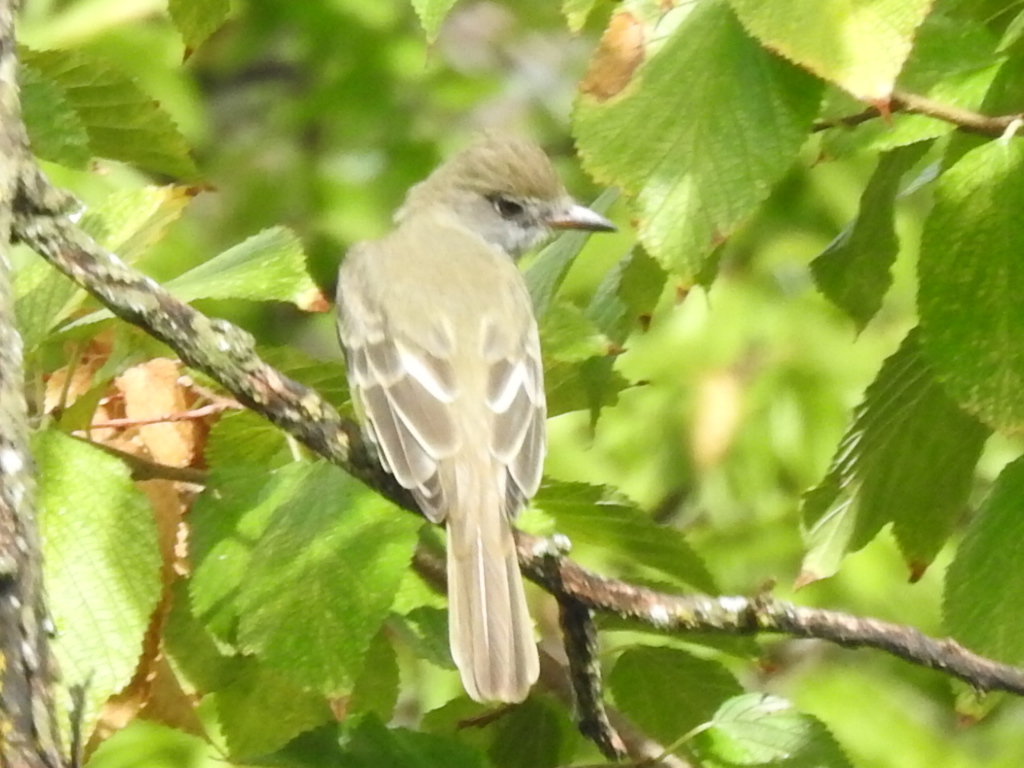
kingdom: Animalia
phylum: Chordata
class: Aves
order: Passeriformes
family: Tyrannidae
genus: Myiarchus
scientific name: Myiarchus crinitus
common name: Great crested flycatcher
